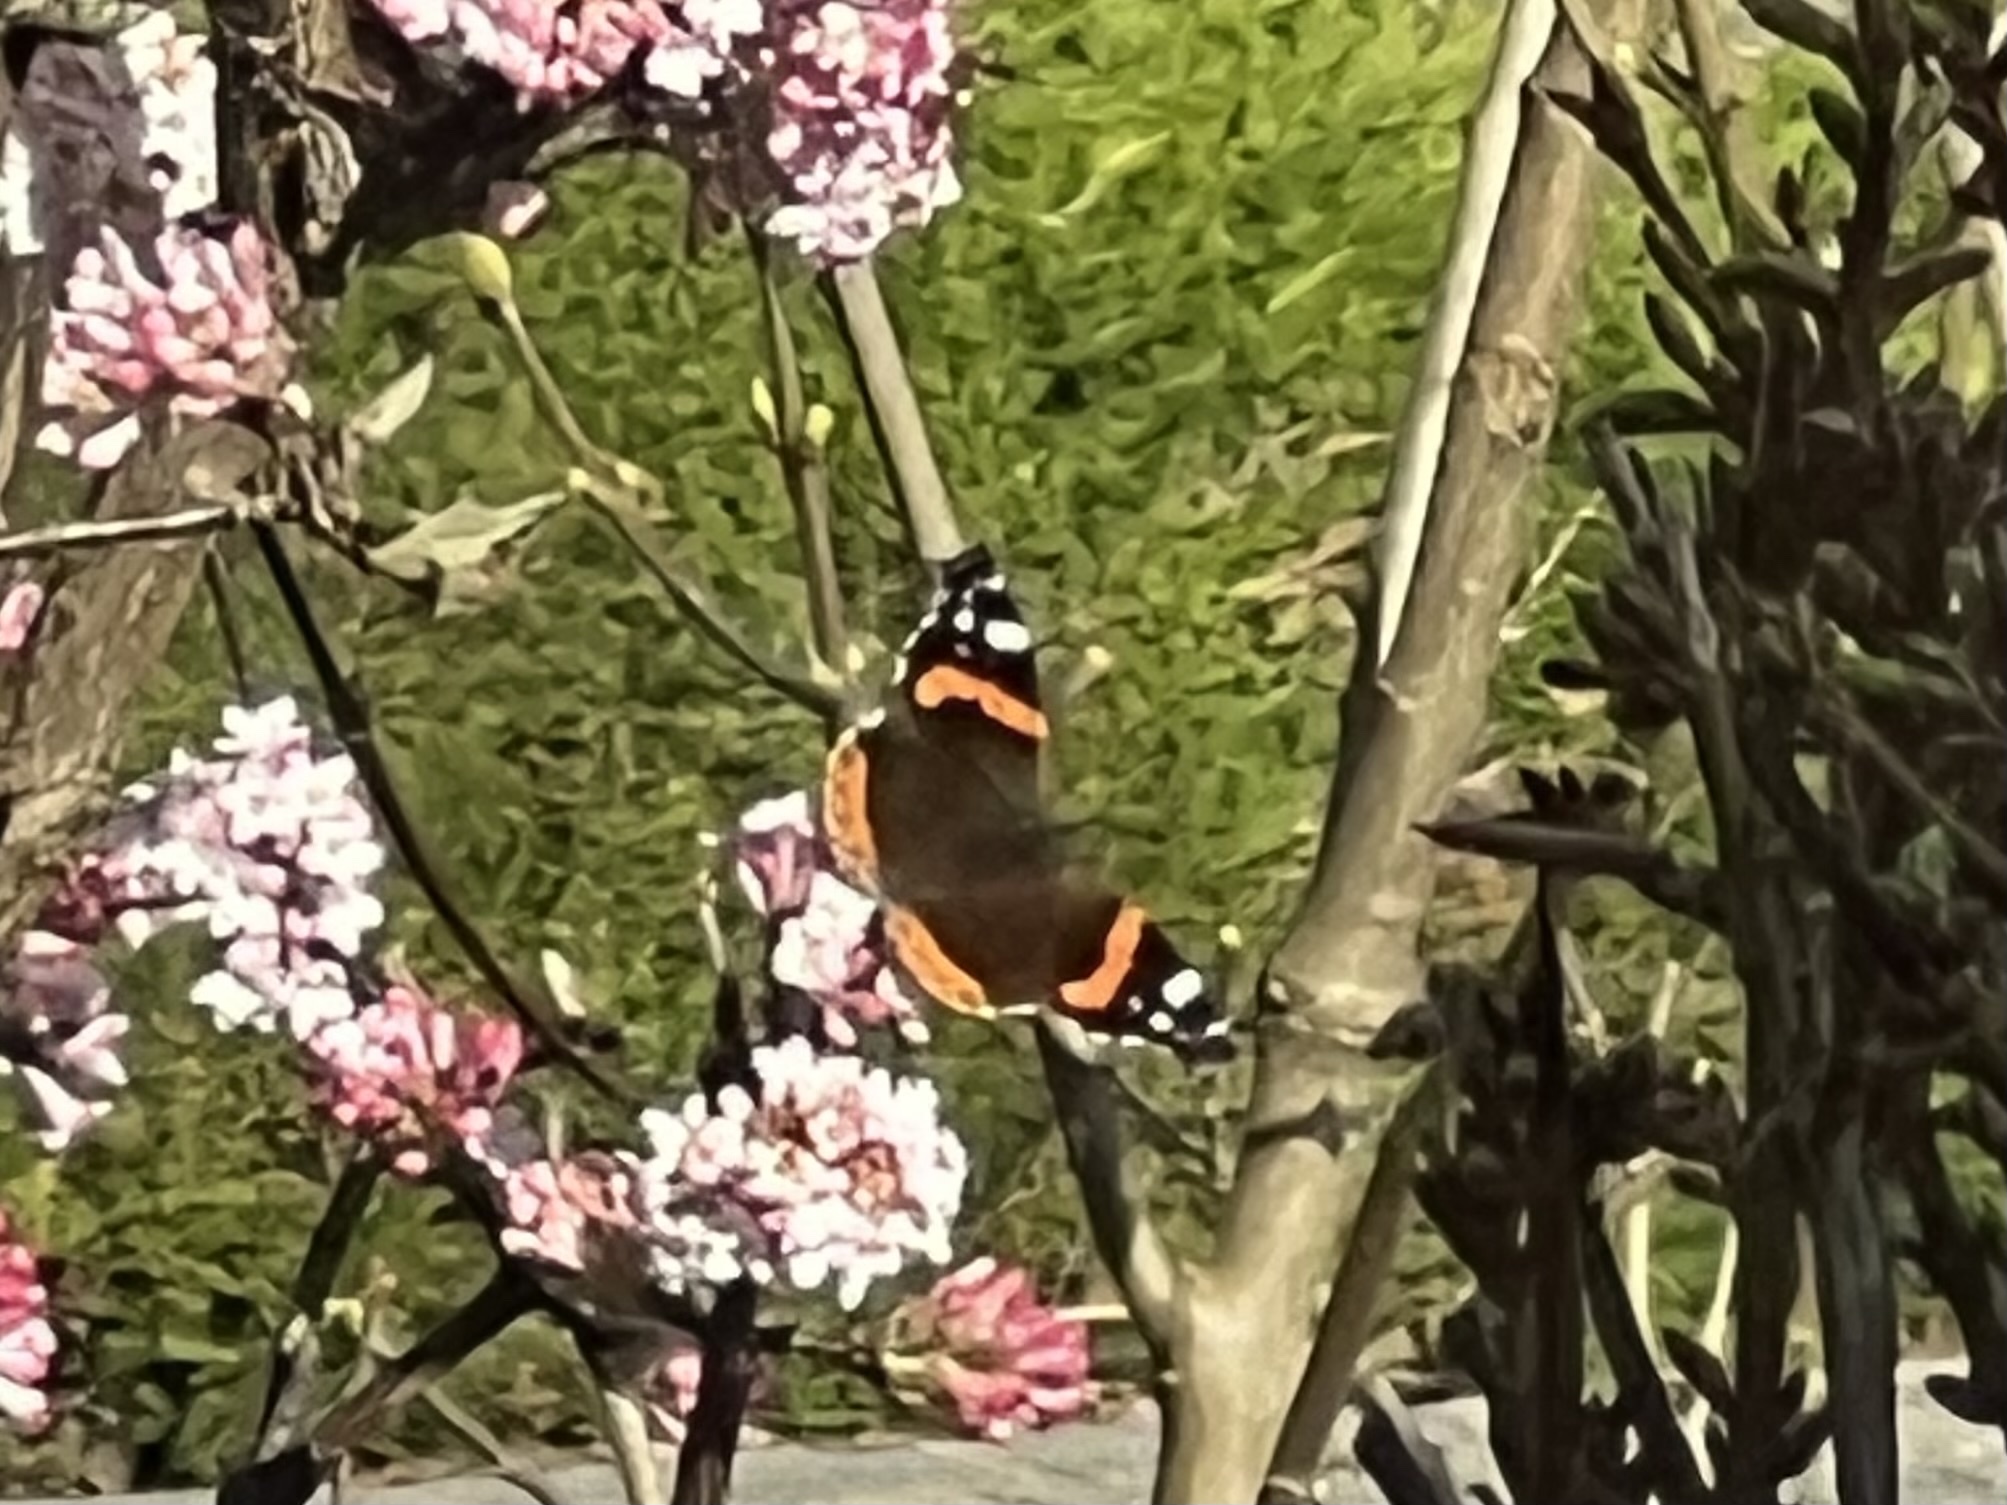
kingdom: Animalia
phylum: Arthropoda
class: Insecta
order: Lepidoptera
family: Nymphalidae
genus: Vanessa
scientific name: Vanessa atalanta
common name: Red admiral
